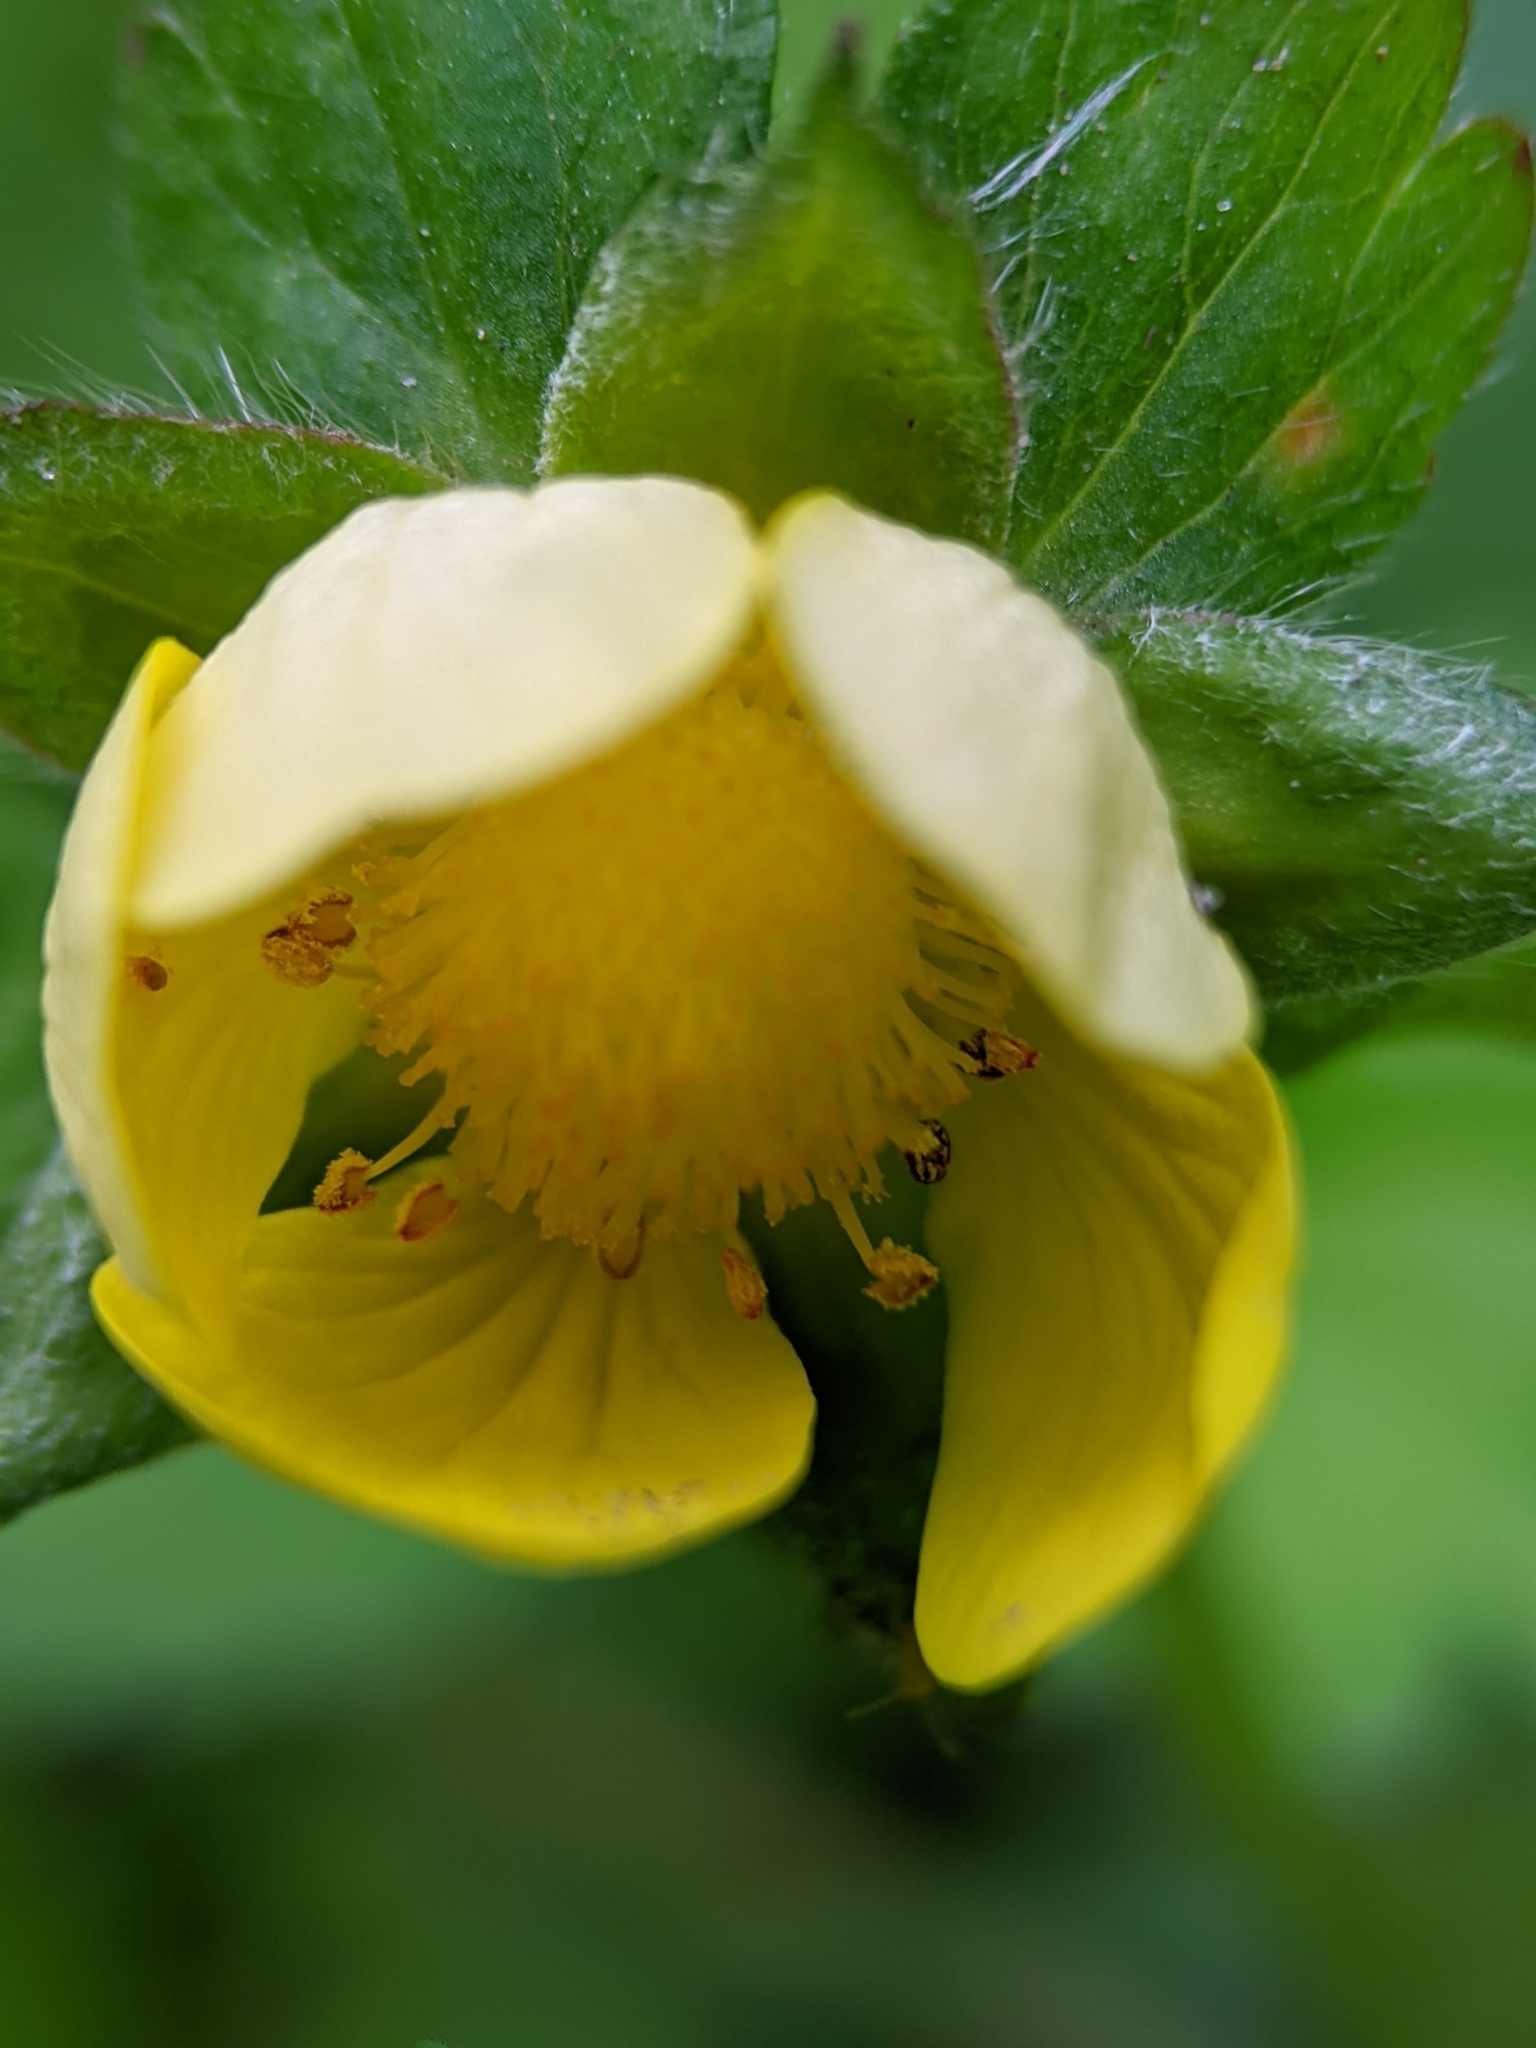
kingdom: Plantae
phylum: Tracheophyta
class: Magnoliopsida
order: Rosales
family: Rosaceae
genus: Potentilla
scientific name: Potentilla indica
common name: Yellow-flowered strawberry
